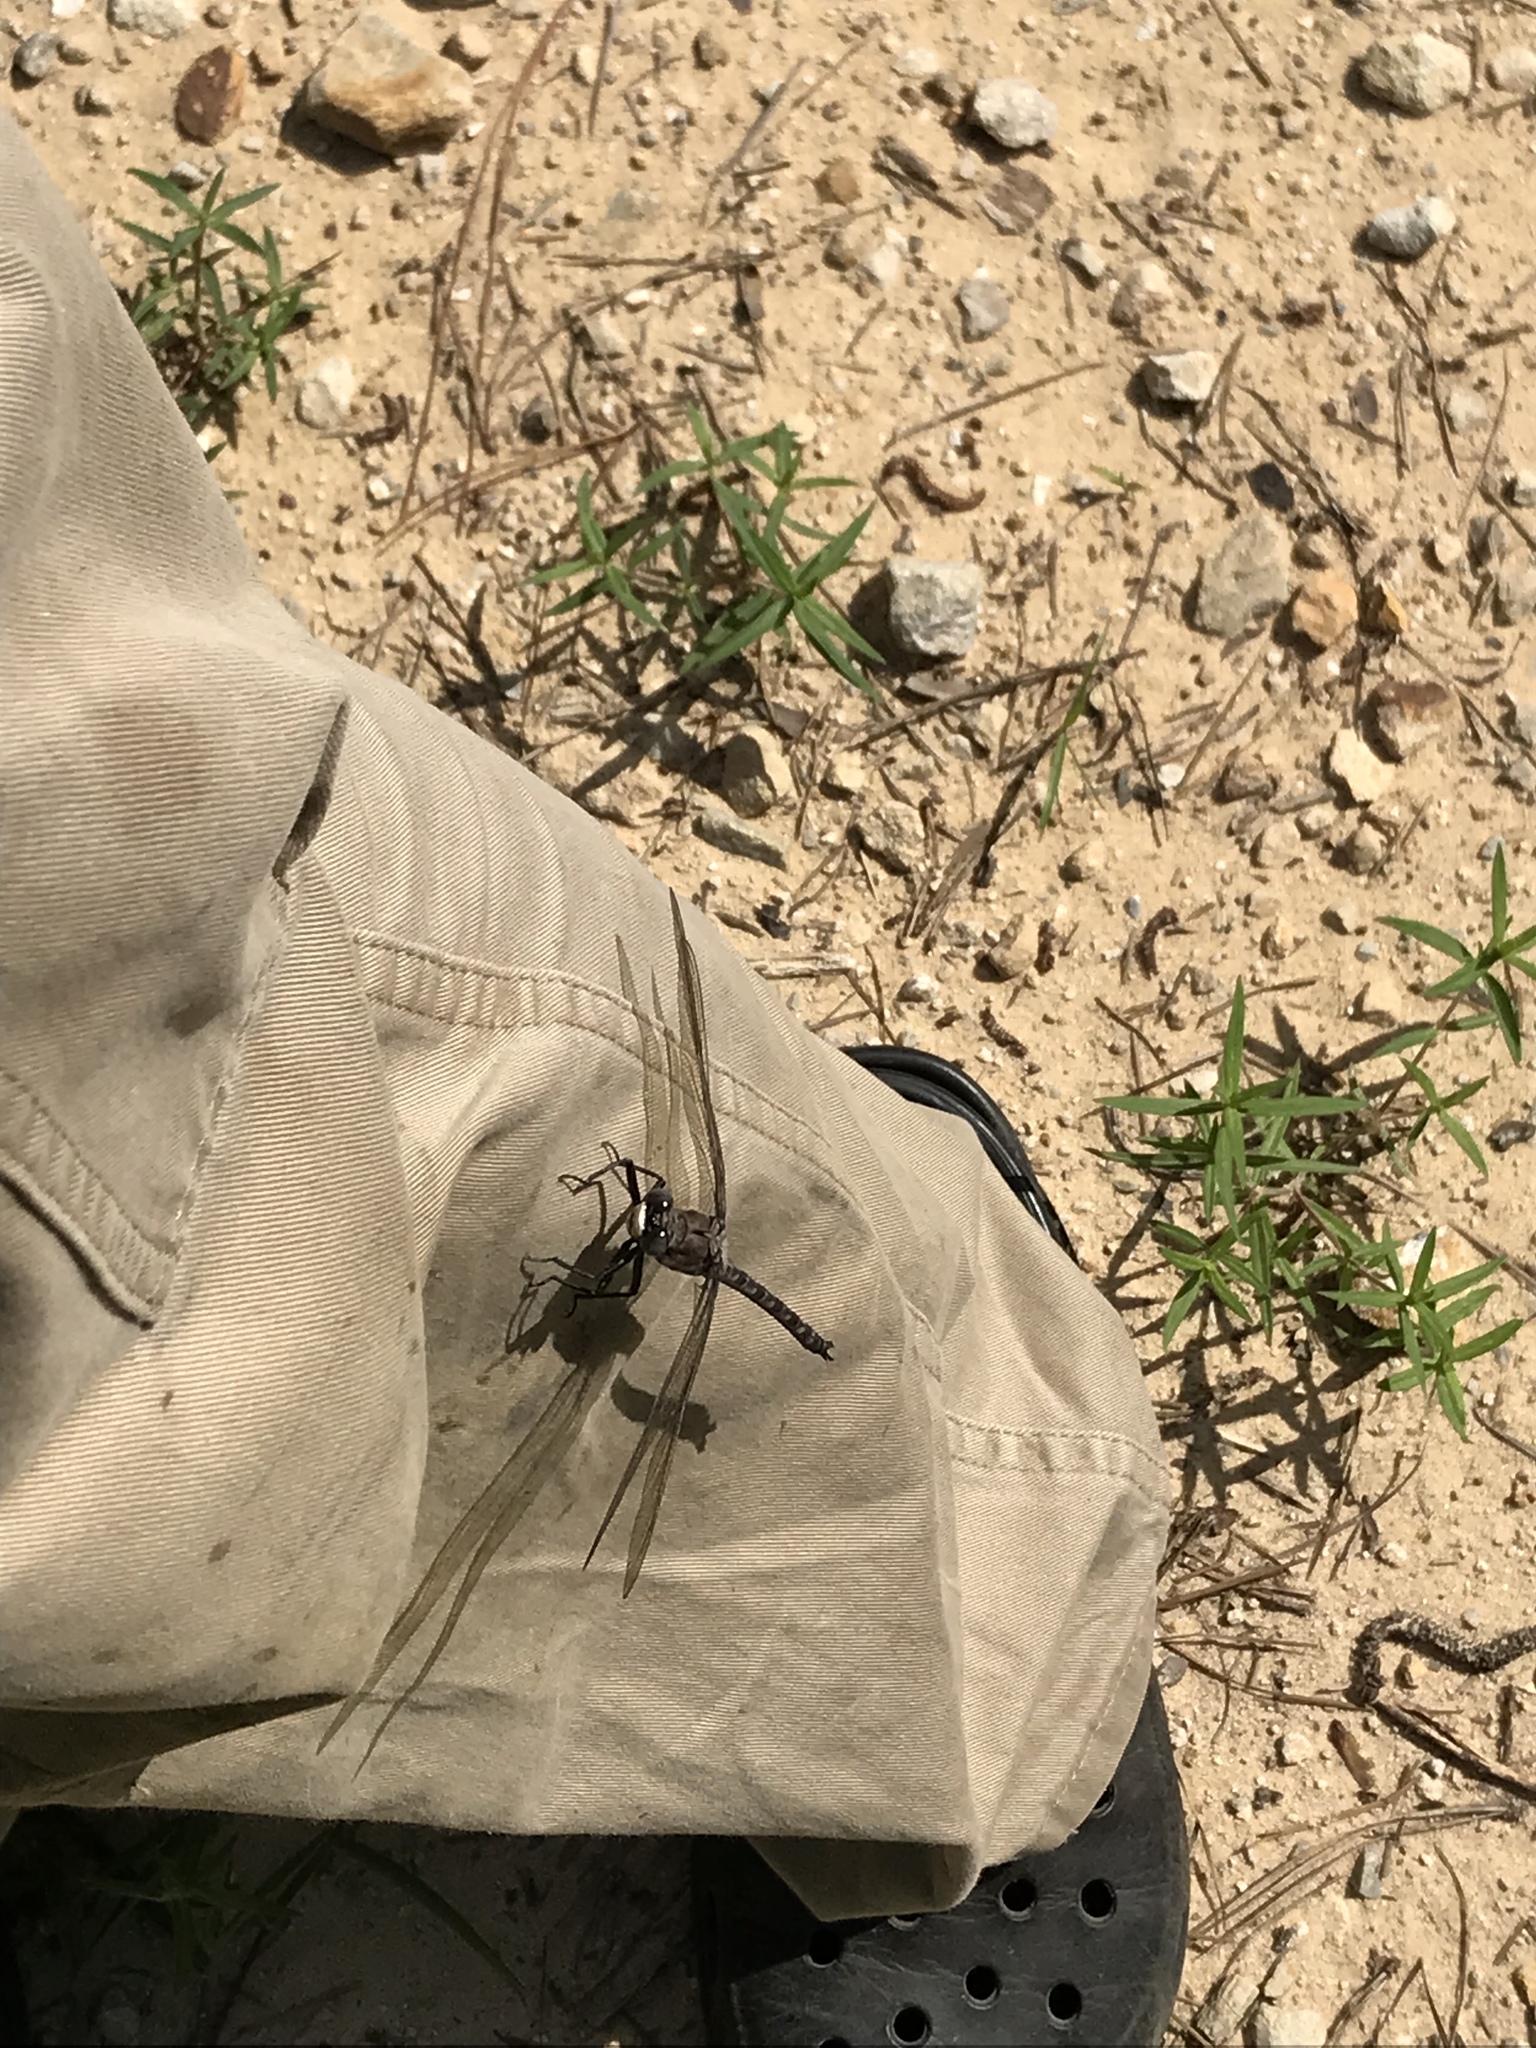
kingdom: Animalia
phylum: Arthropoda
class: Insecta
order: Odonata
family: Petaluridae
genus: Tachopteryx
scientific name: Tachopteryx thoreyi
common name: Gray petaltail
